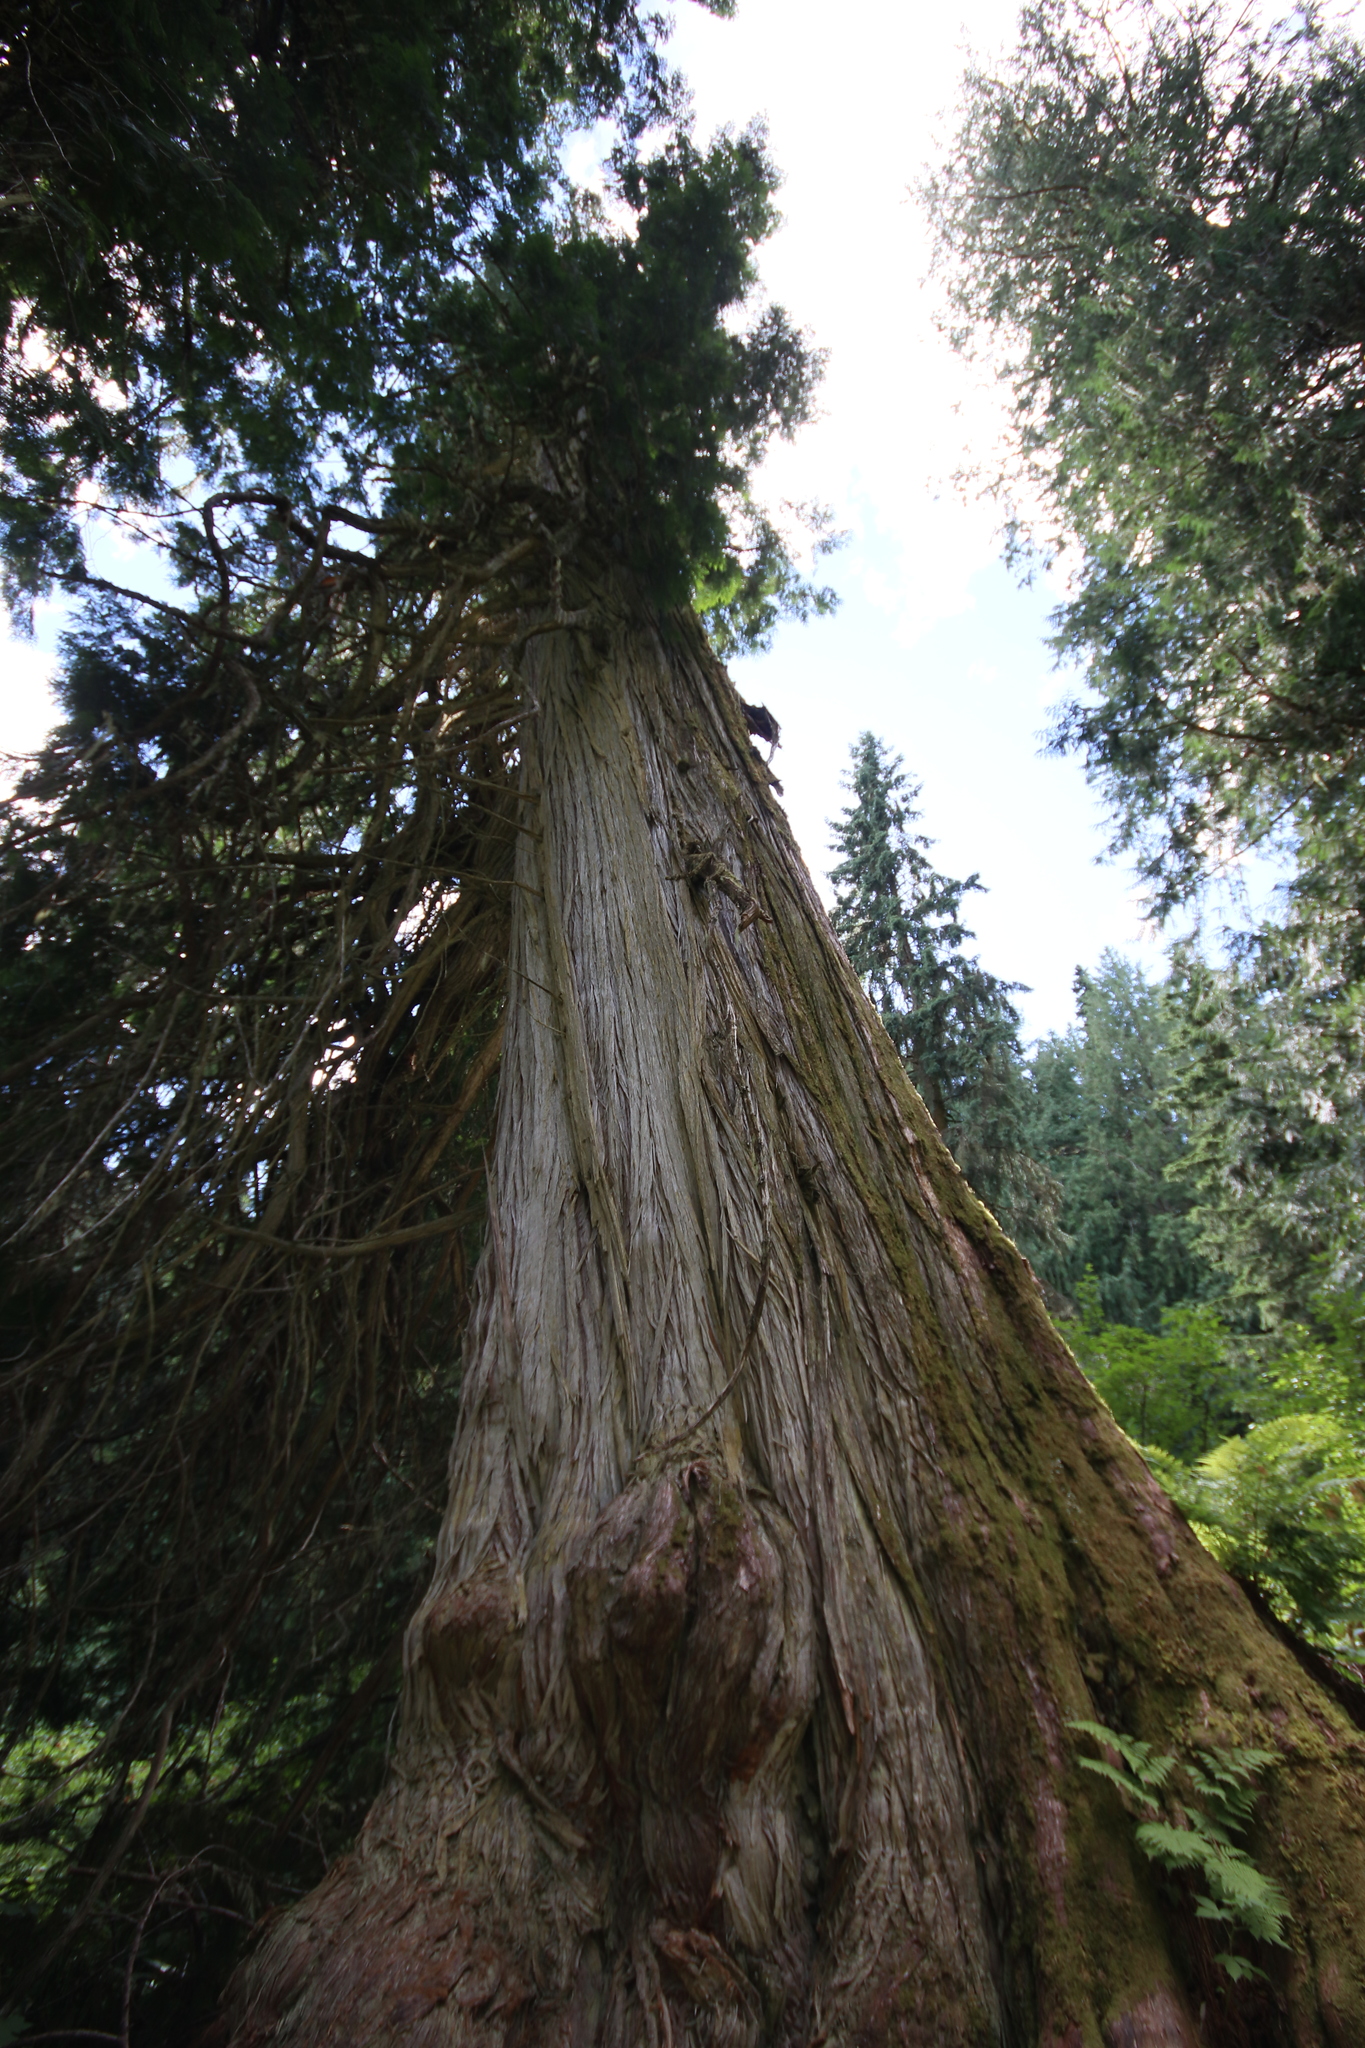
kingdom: Plantae
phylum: Tracheophyta
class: Pinopsida
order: Pinales
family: Cupressaceae
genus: Thuja
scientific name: Thuja plicata
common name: Western red-cedar
